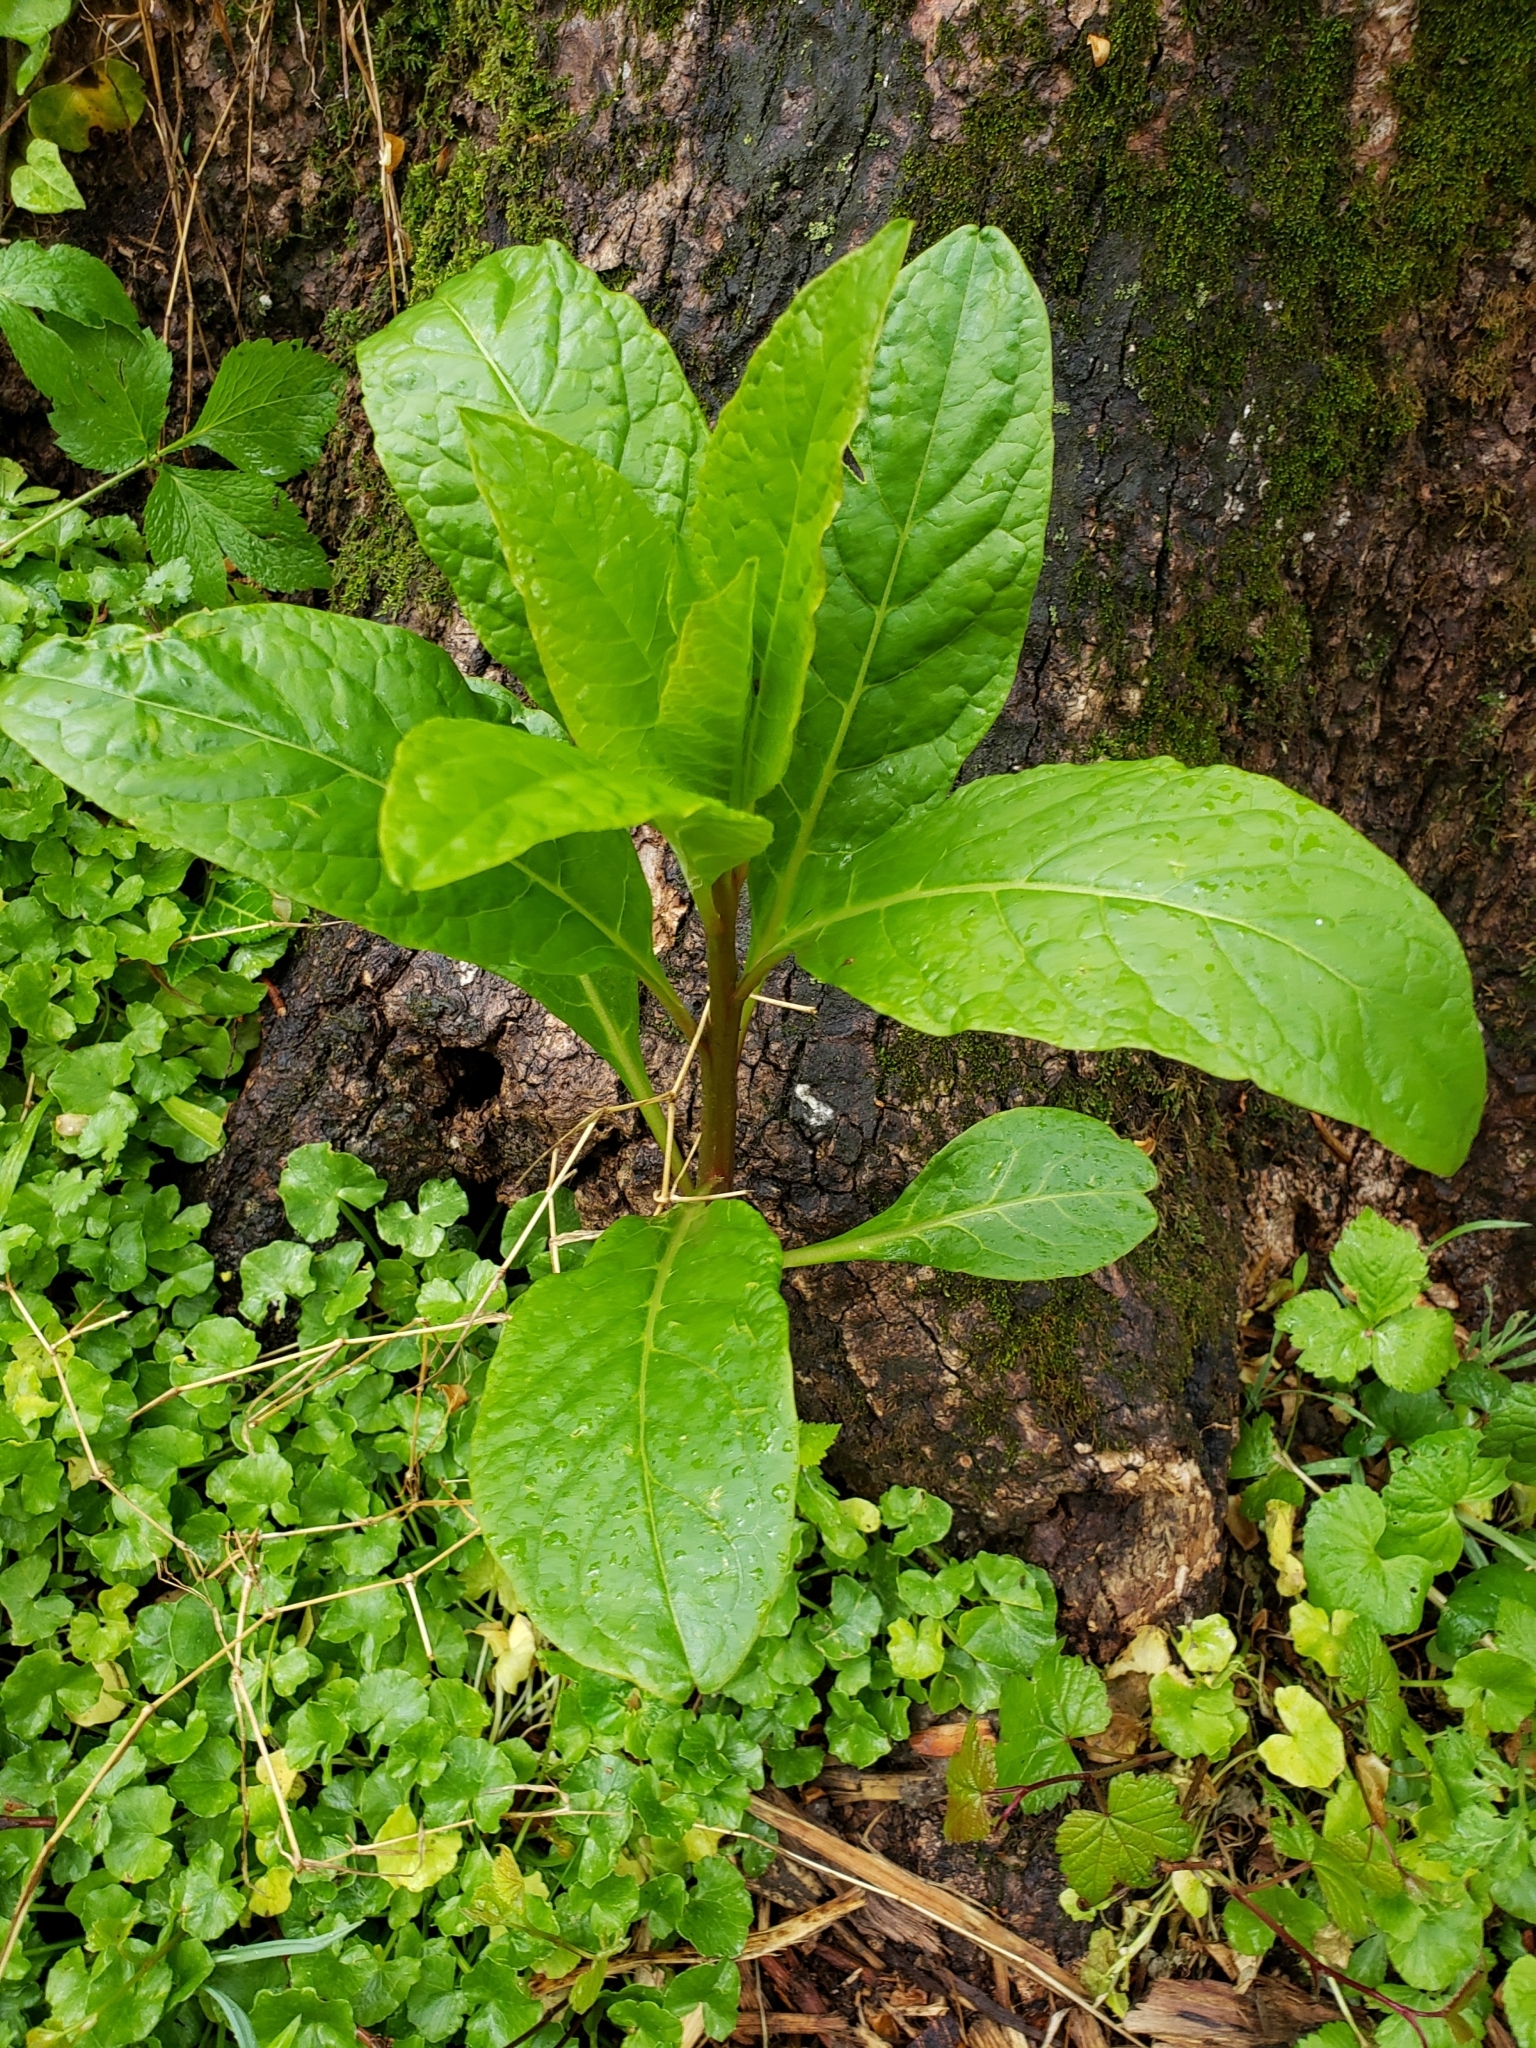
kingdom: Plantae
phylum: Tracheophyta
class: Magnoliopsida
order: Caryophyllales
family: Phytolaccaceae
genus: Phytolacca
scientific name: Phytolacca americana
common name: American pokeweed
